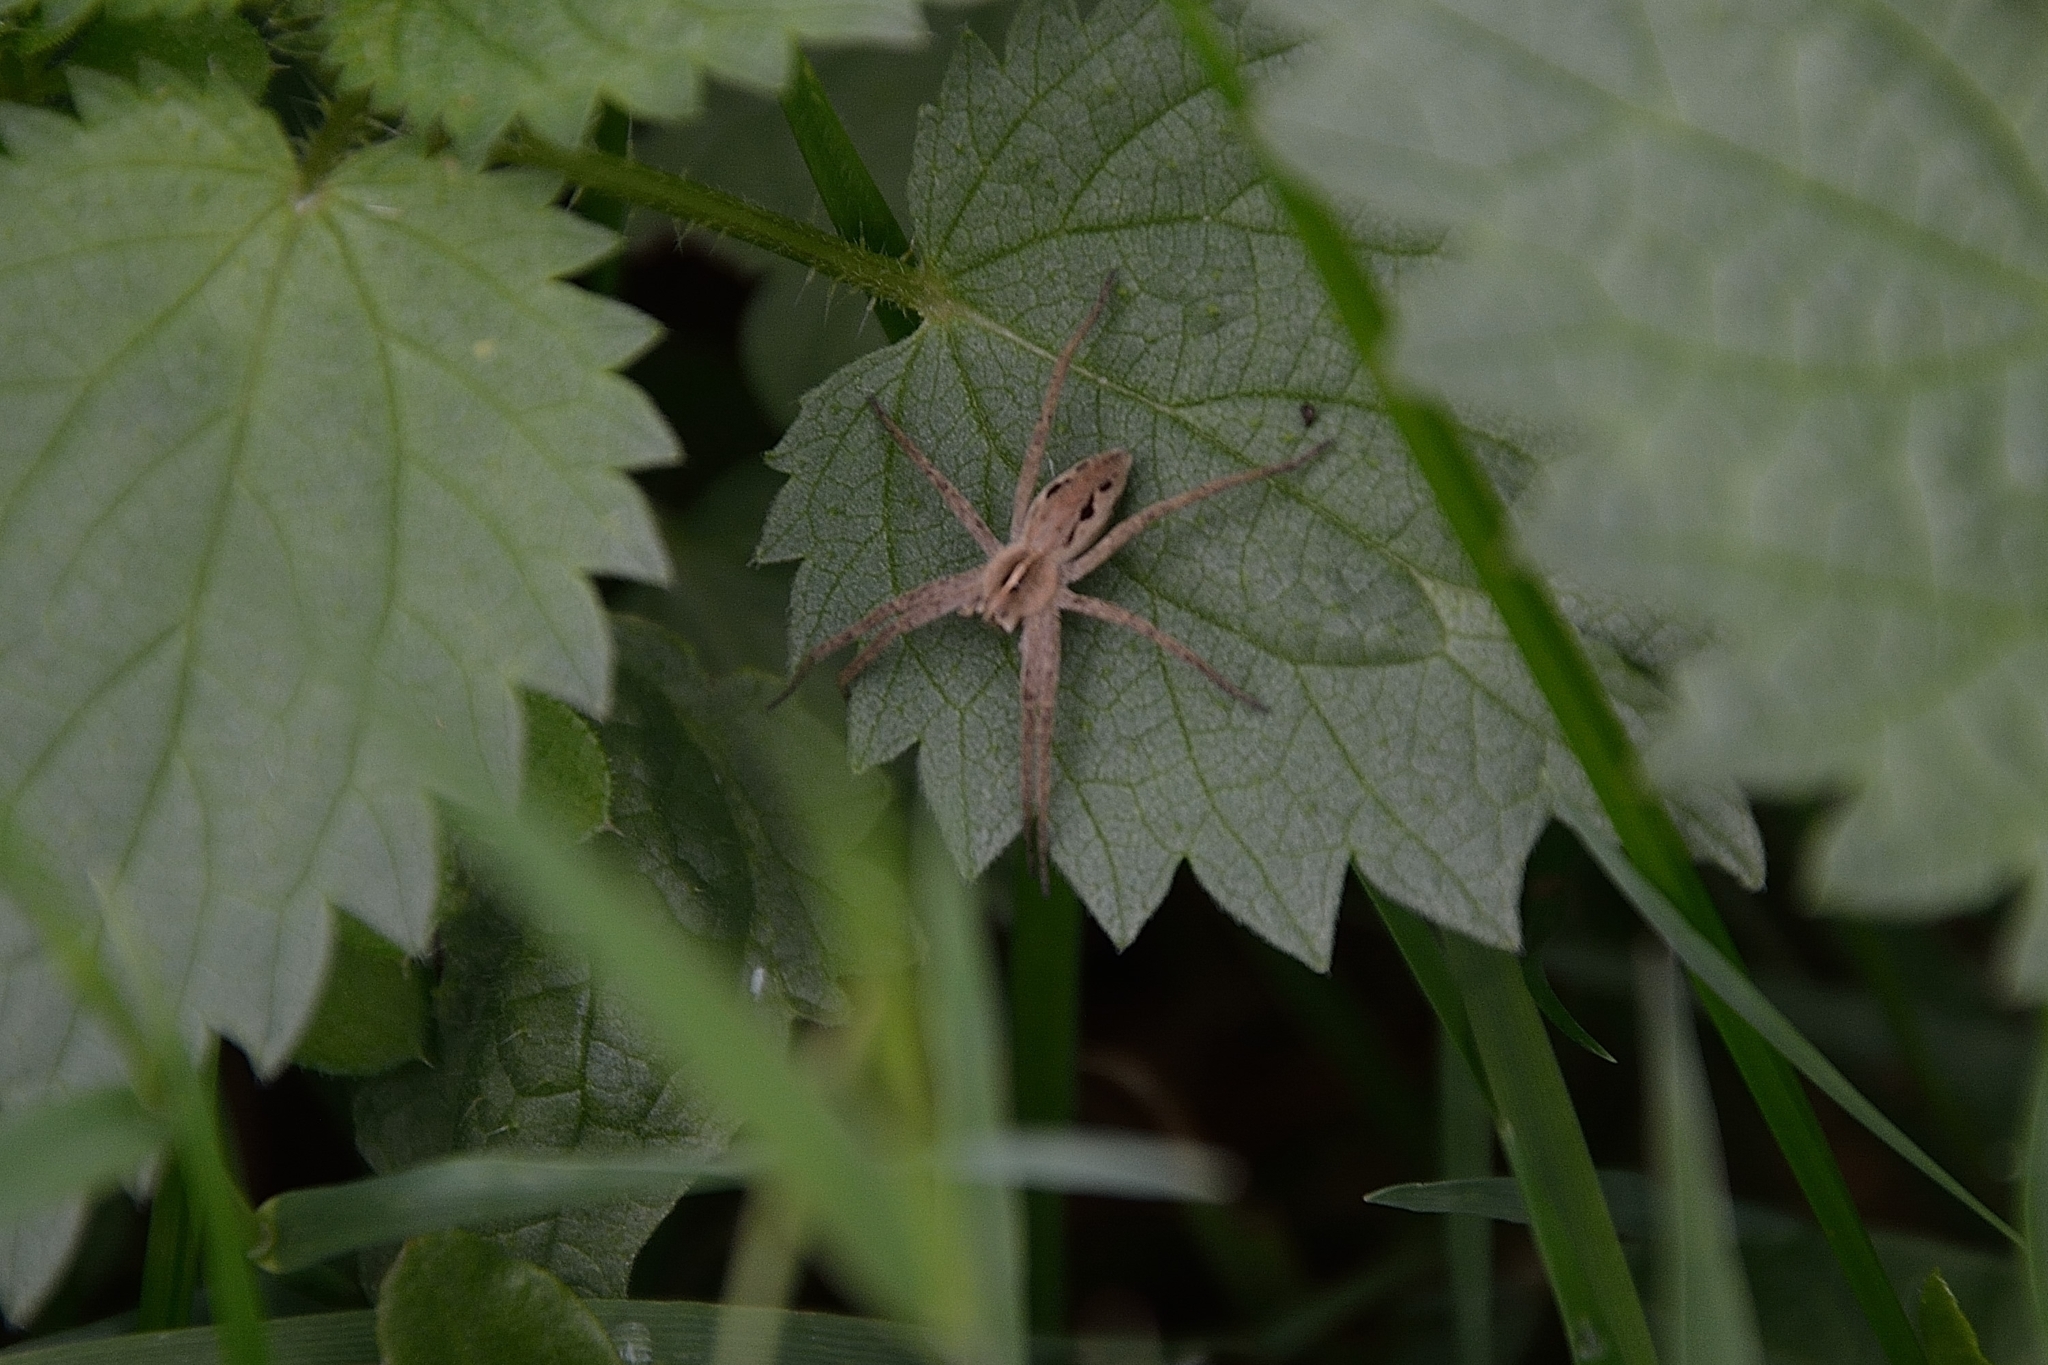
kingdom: Animalia
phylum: Arthropoda
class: Arachnida
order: Araneae
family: Pisauridae
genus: Pisaura
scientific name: Pisaura mirabilis
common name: Tent spider
